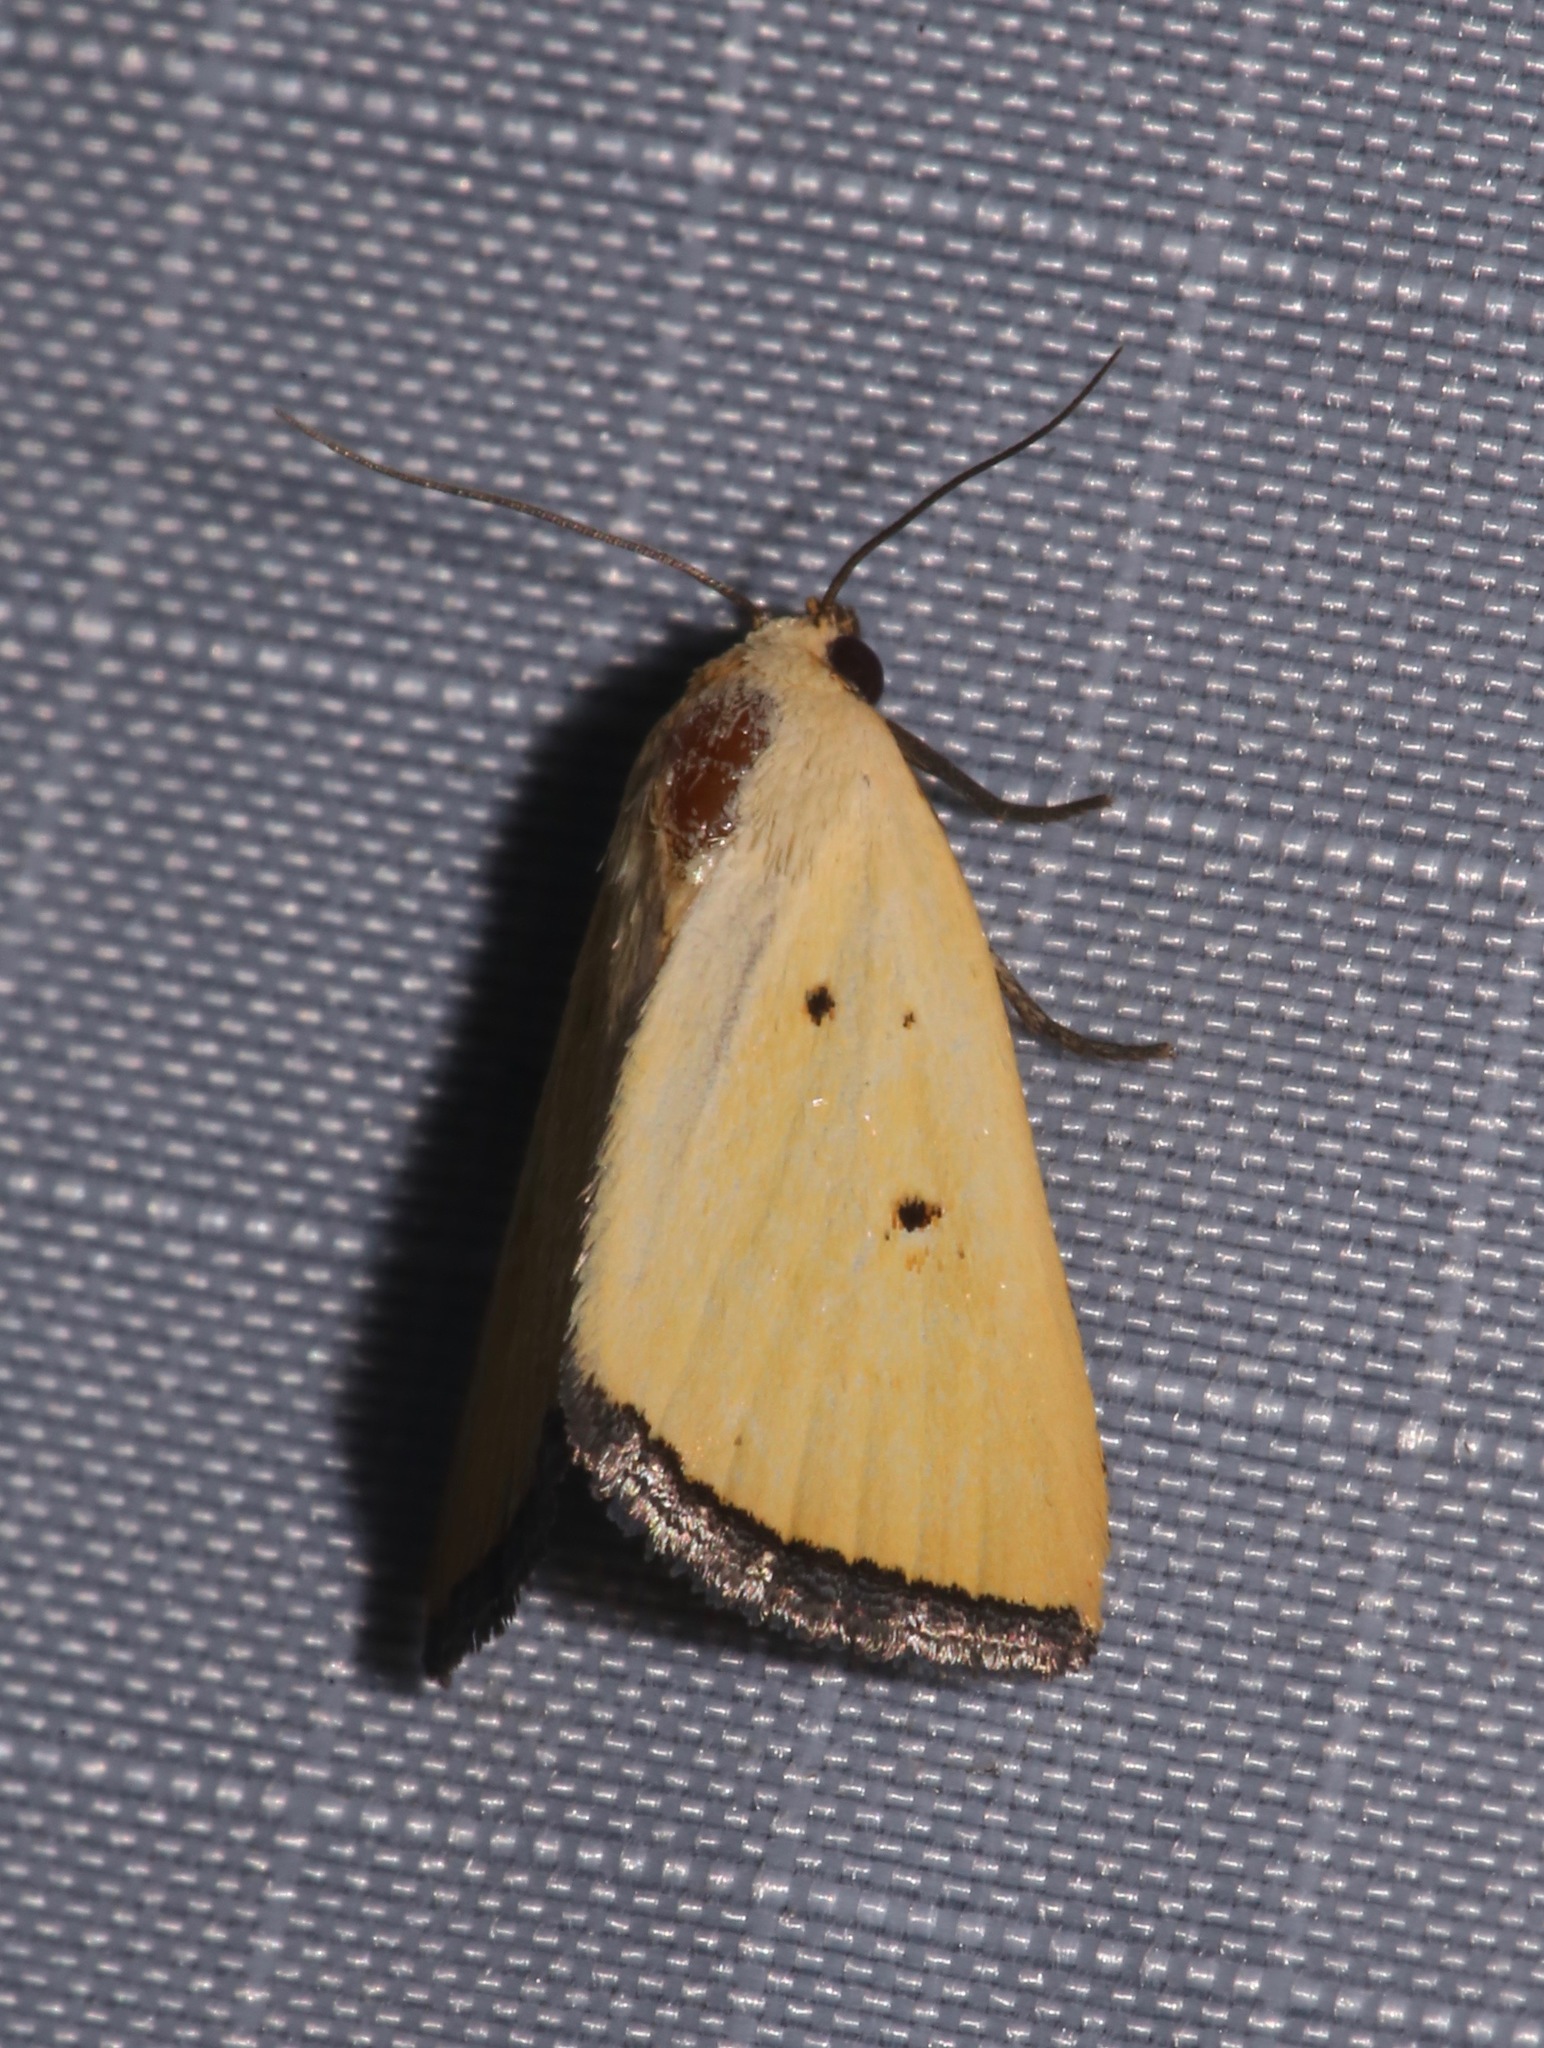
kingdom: Animalia
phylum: Arthropoda
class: Insecta
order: Lepidoptera
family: Noctuidae
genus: Marimatha
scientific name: Marimatha nigrofimbria
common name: Black-bordered lemon moth
